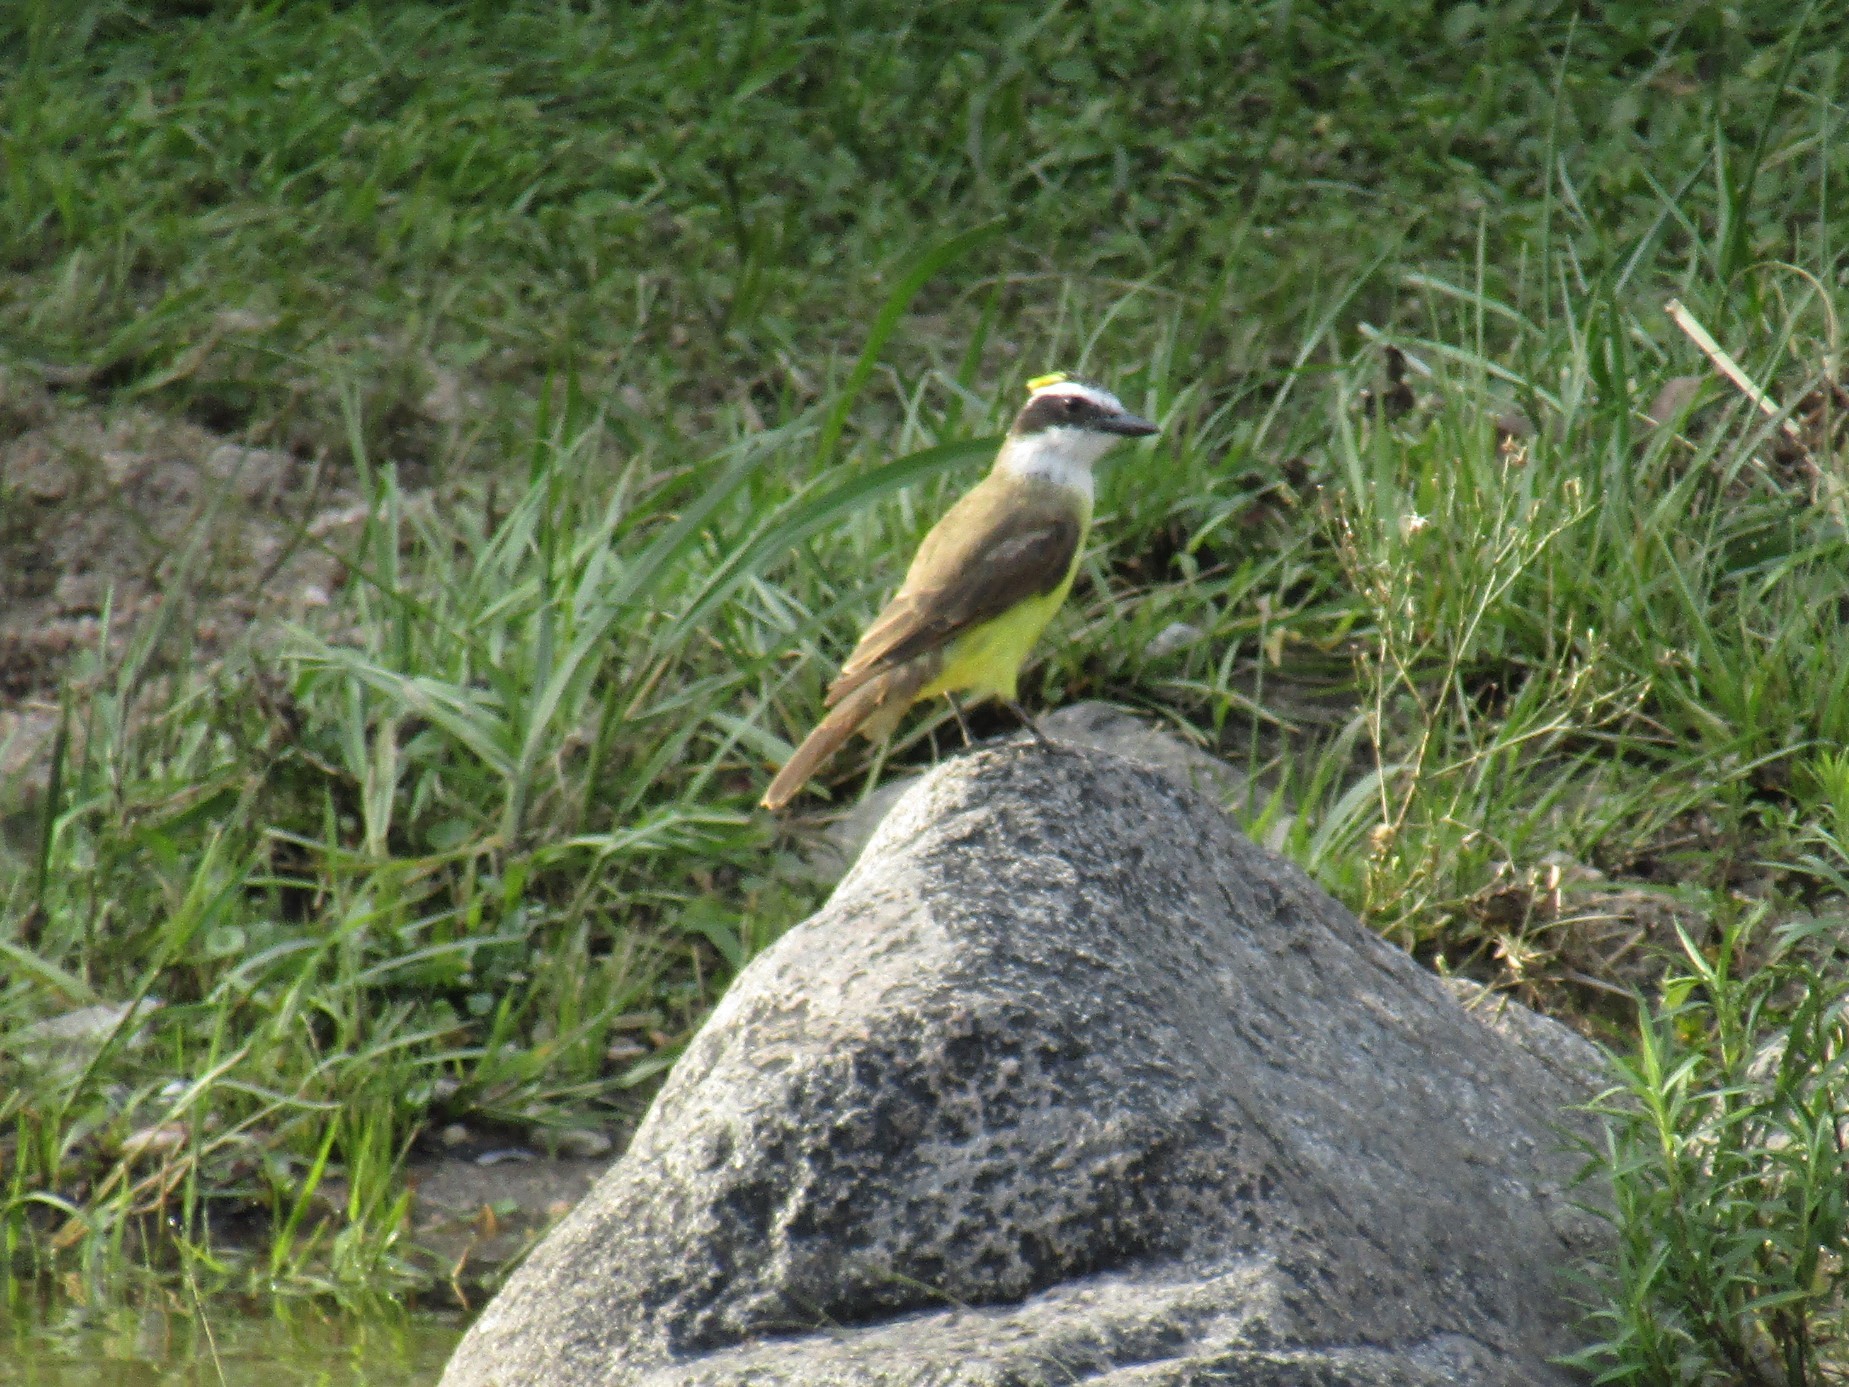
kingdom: Animalia
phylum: Chordata
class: Aves
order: Passeriformes
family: Tyrannidae
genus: Pitangus
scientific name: Pitangus sulphuratus
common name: Great kiskadee
